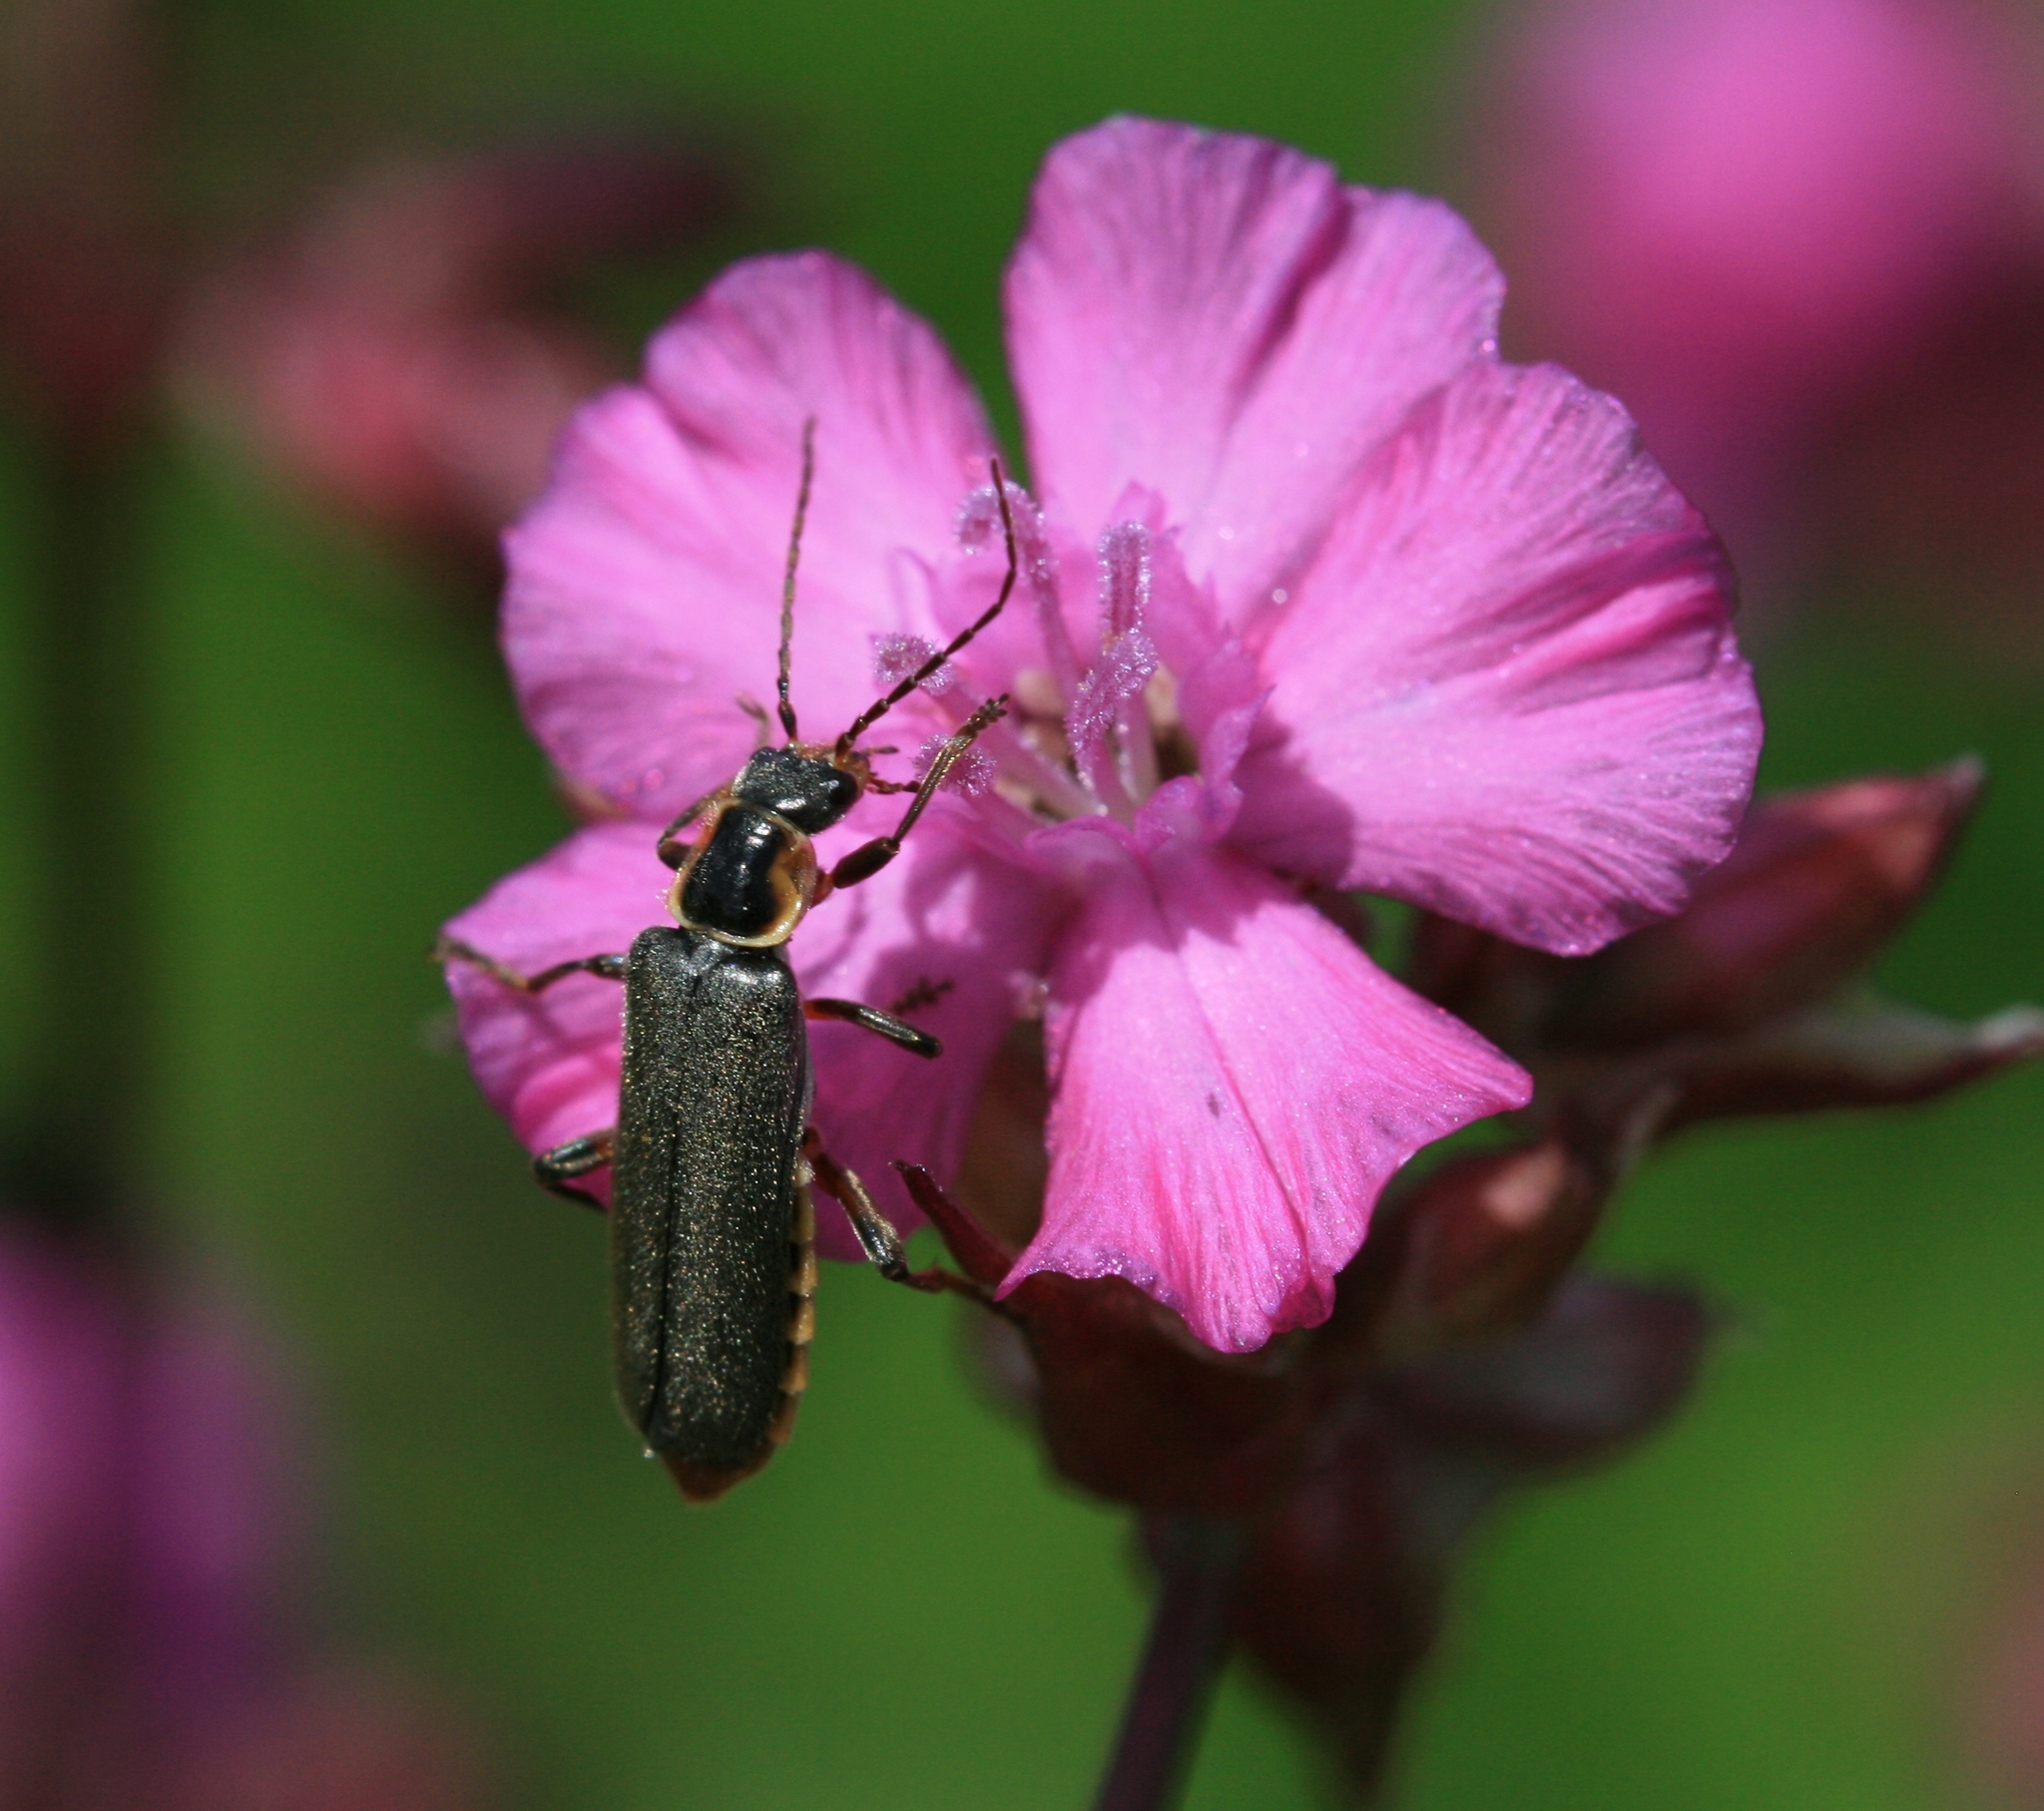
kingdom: Animalia
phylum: Arthropoda
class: Insecta
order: Coleoptera
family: Cantharidae
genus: Cantharis
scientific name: Cantharis nigricans
